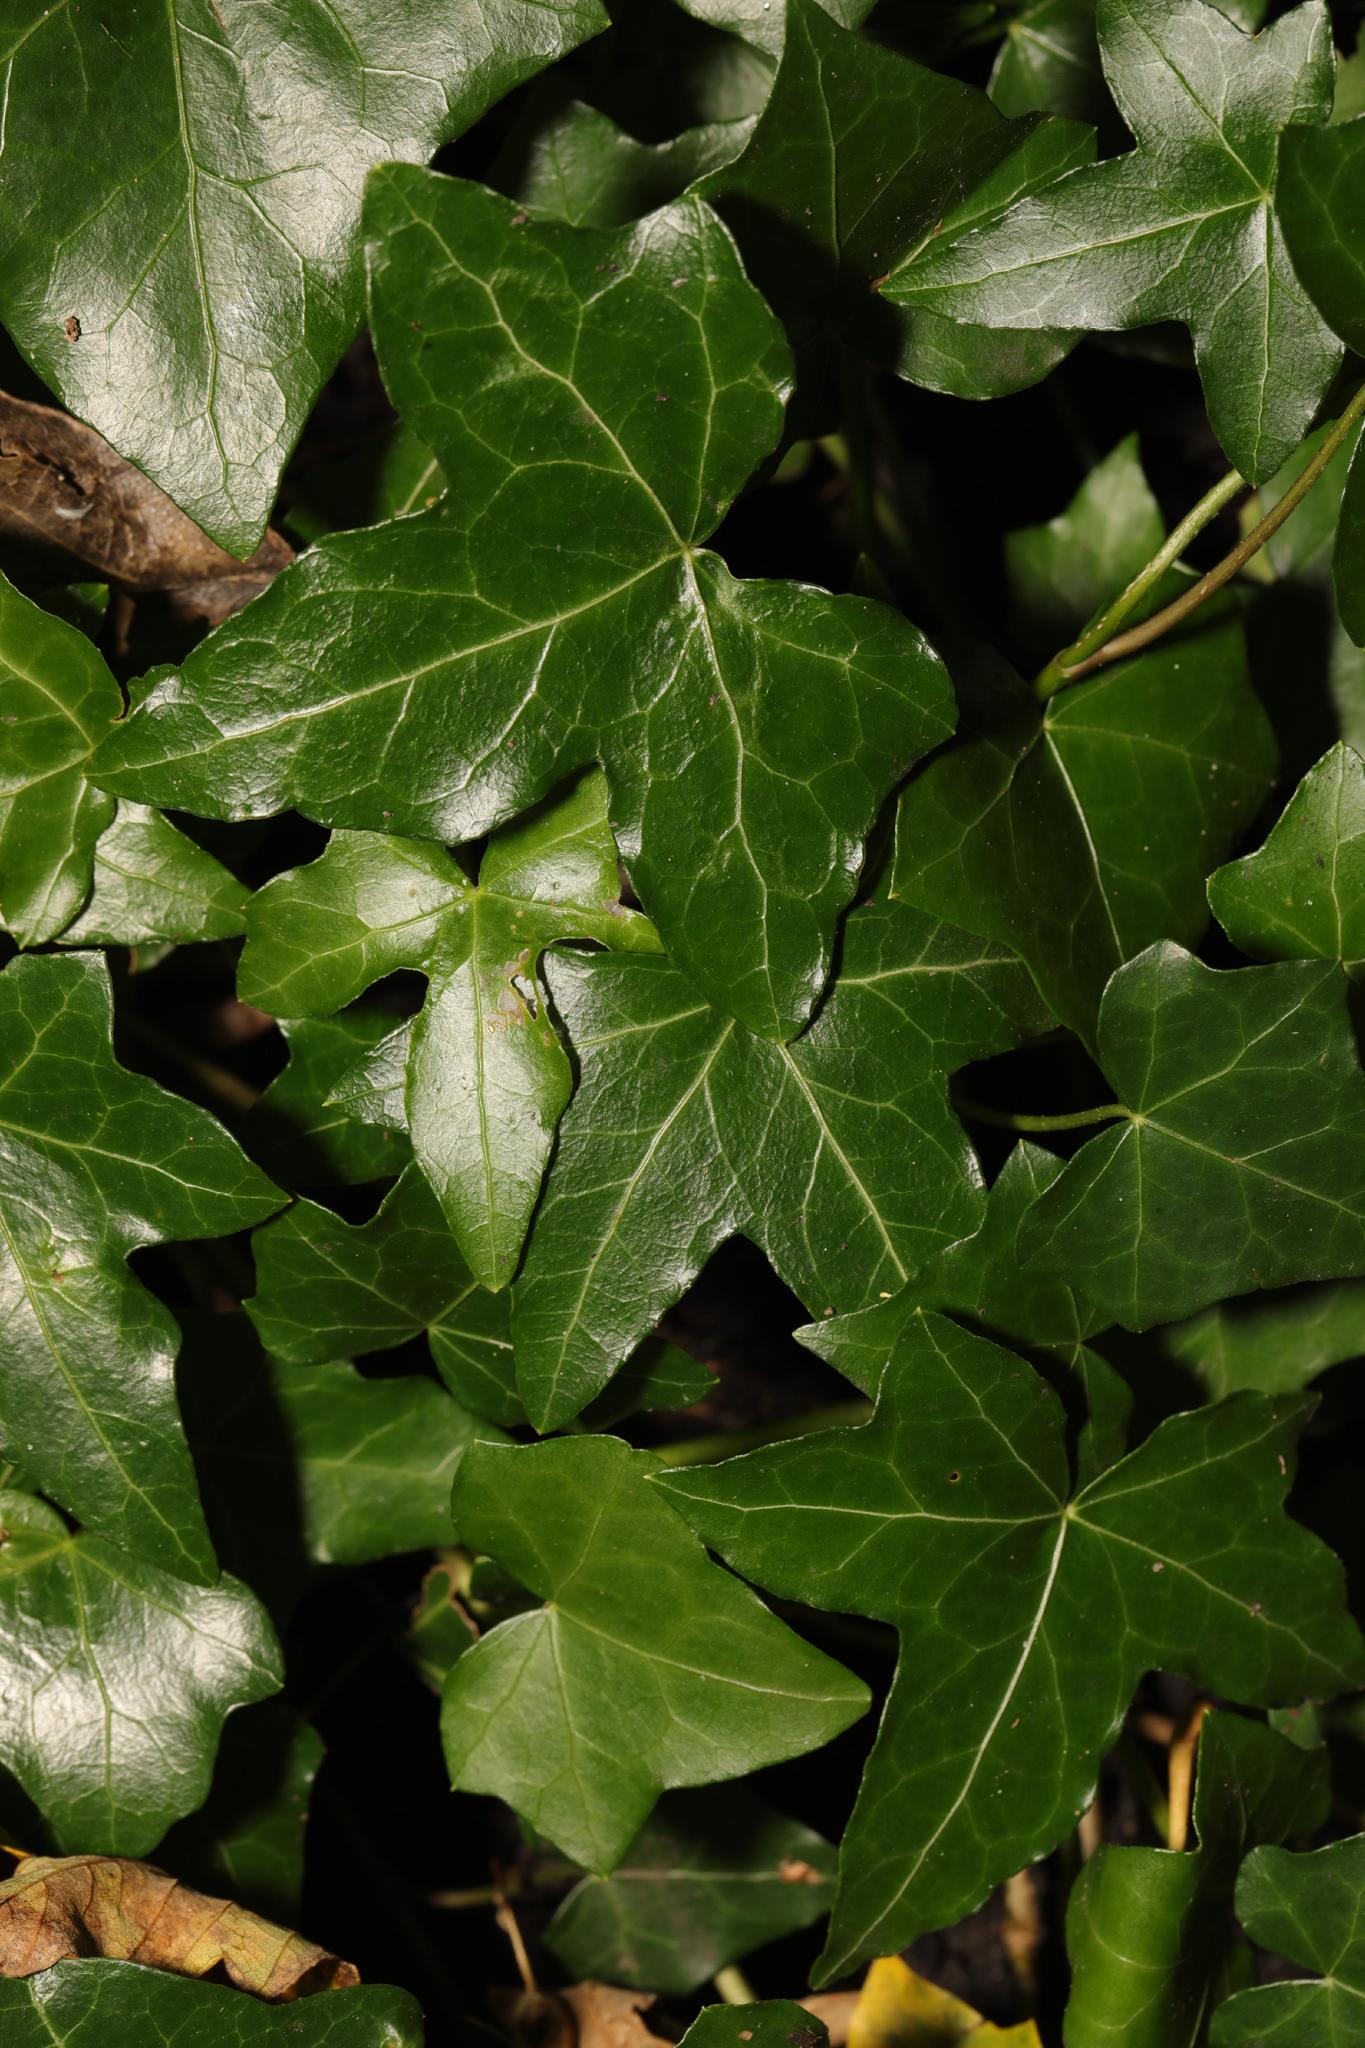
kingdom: Plantae
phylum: Tracheophyta
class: Magnoliopsida
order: Apiales
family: Araliaceae
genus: Hedera
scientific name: Hedera helix
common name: Ivy
